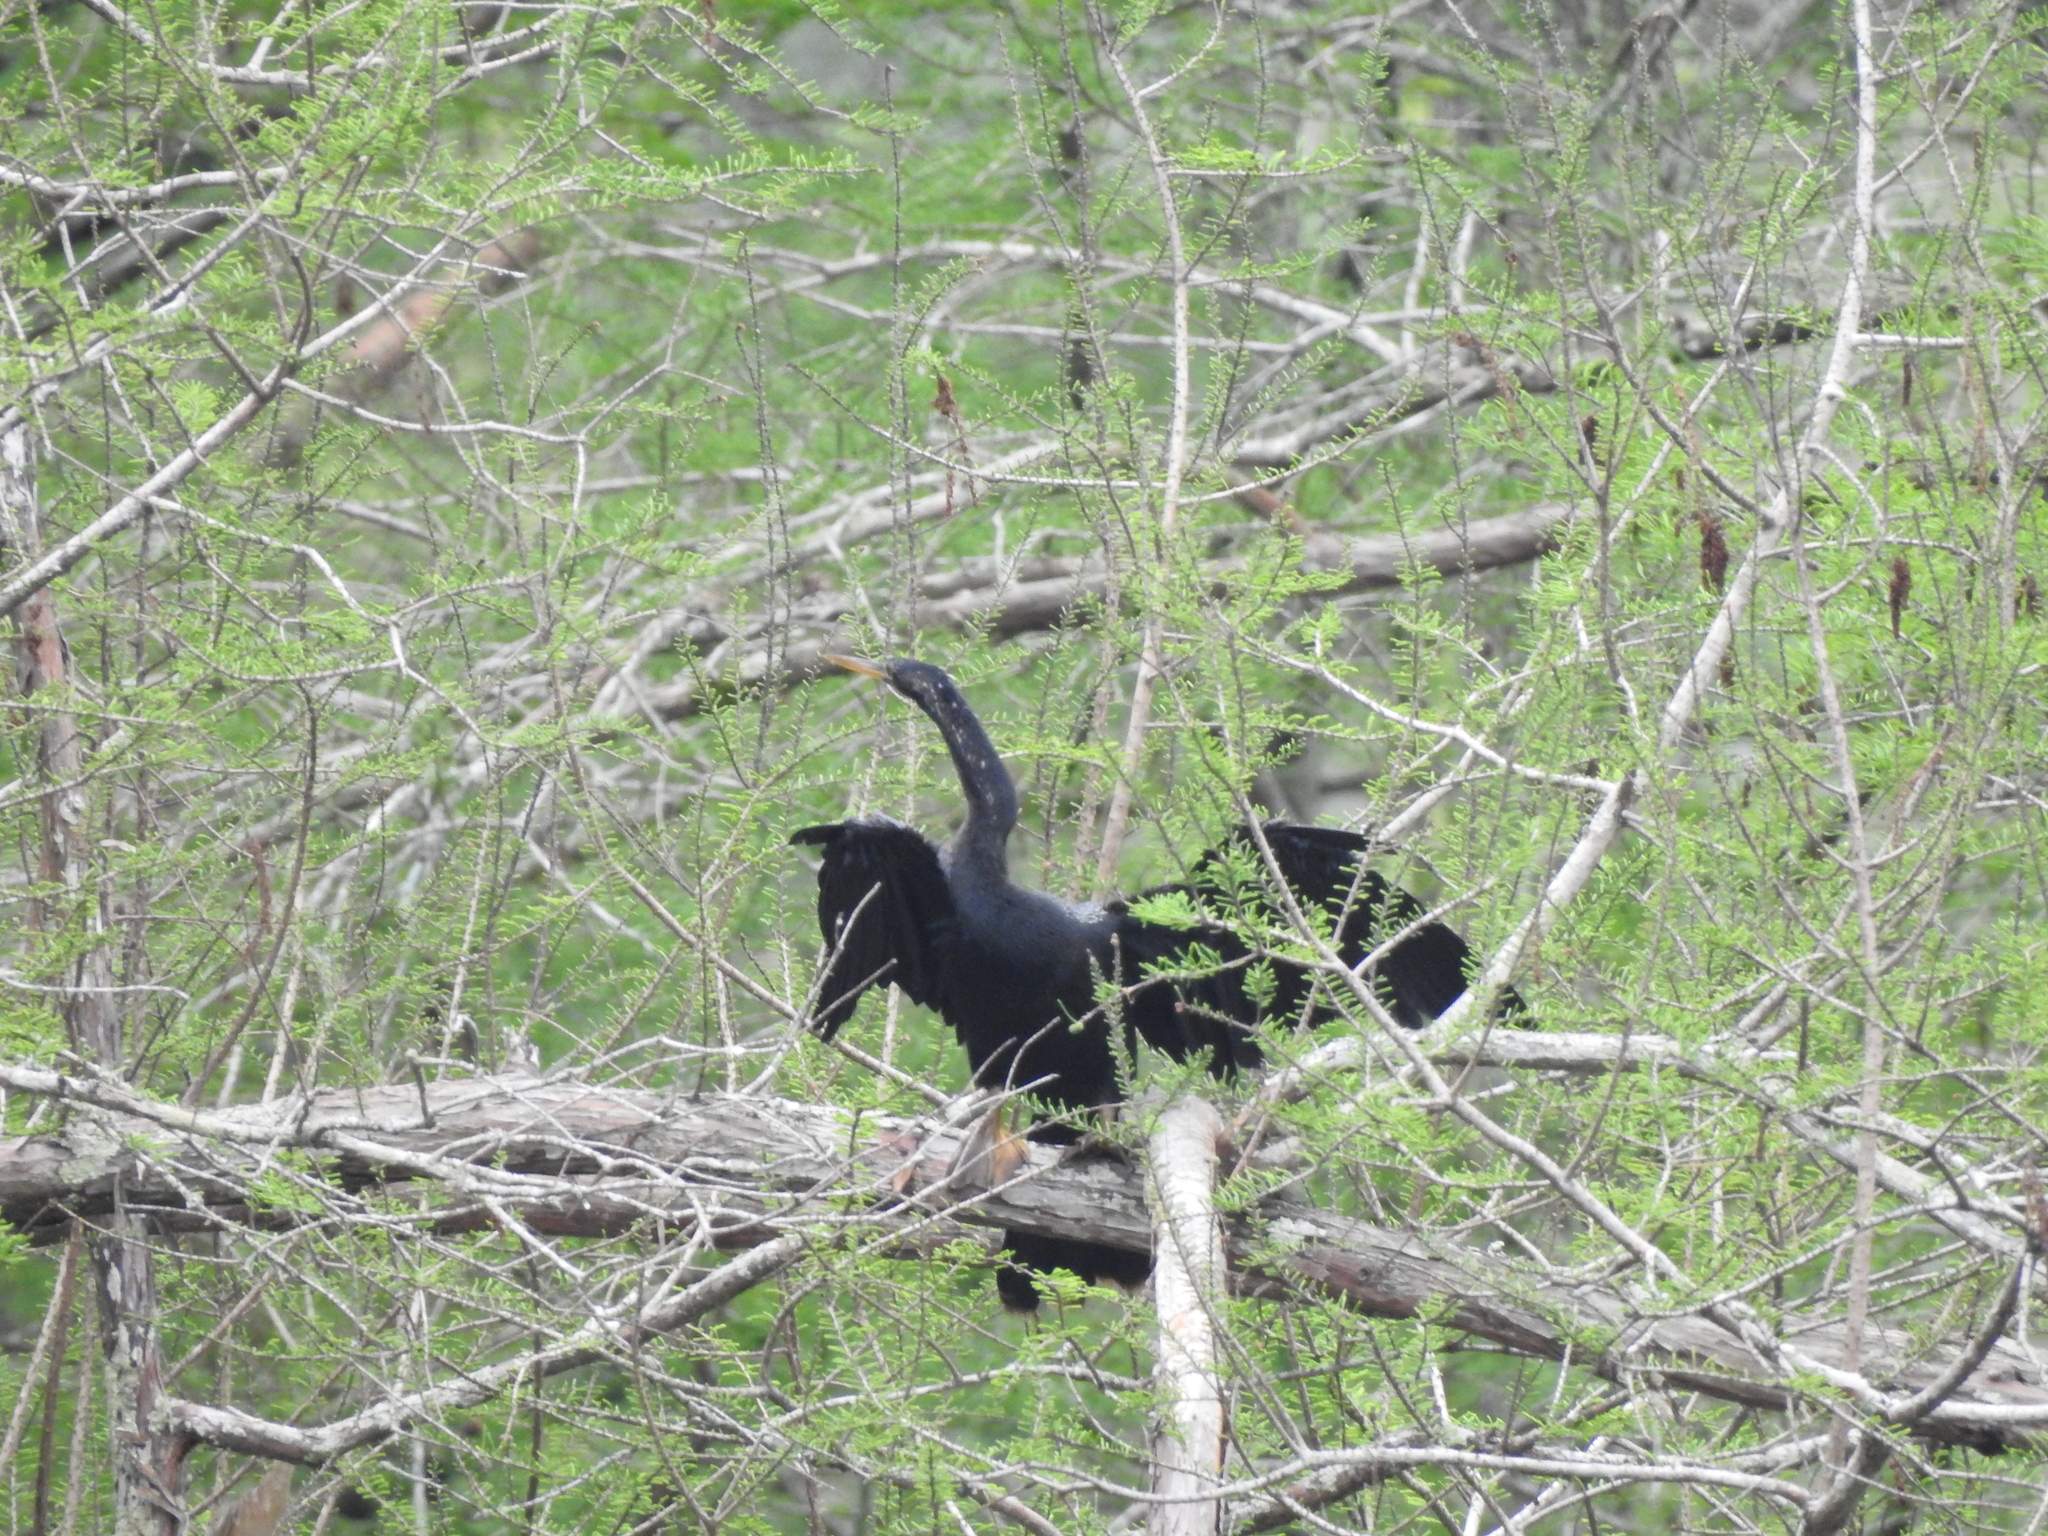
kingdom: Animalia
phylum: Chordata
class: Aves
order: Suliformes
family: Anhingidae
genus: Anhinga
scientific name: Anhinga anhinga
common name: Anhinga
